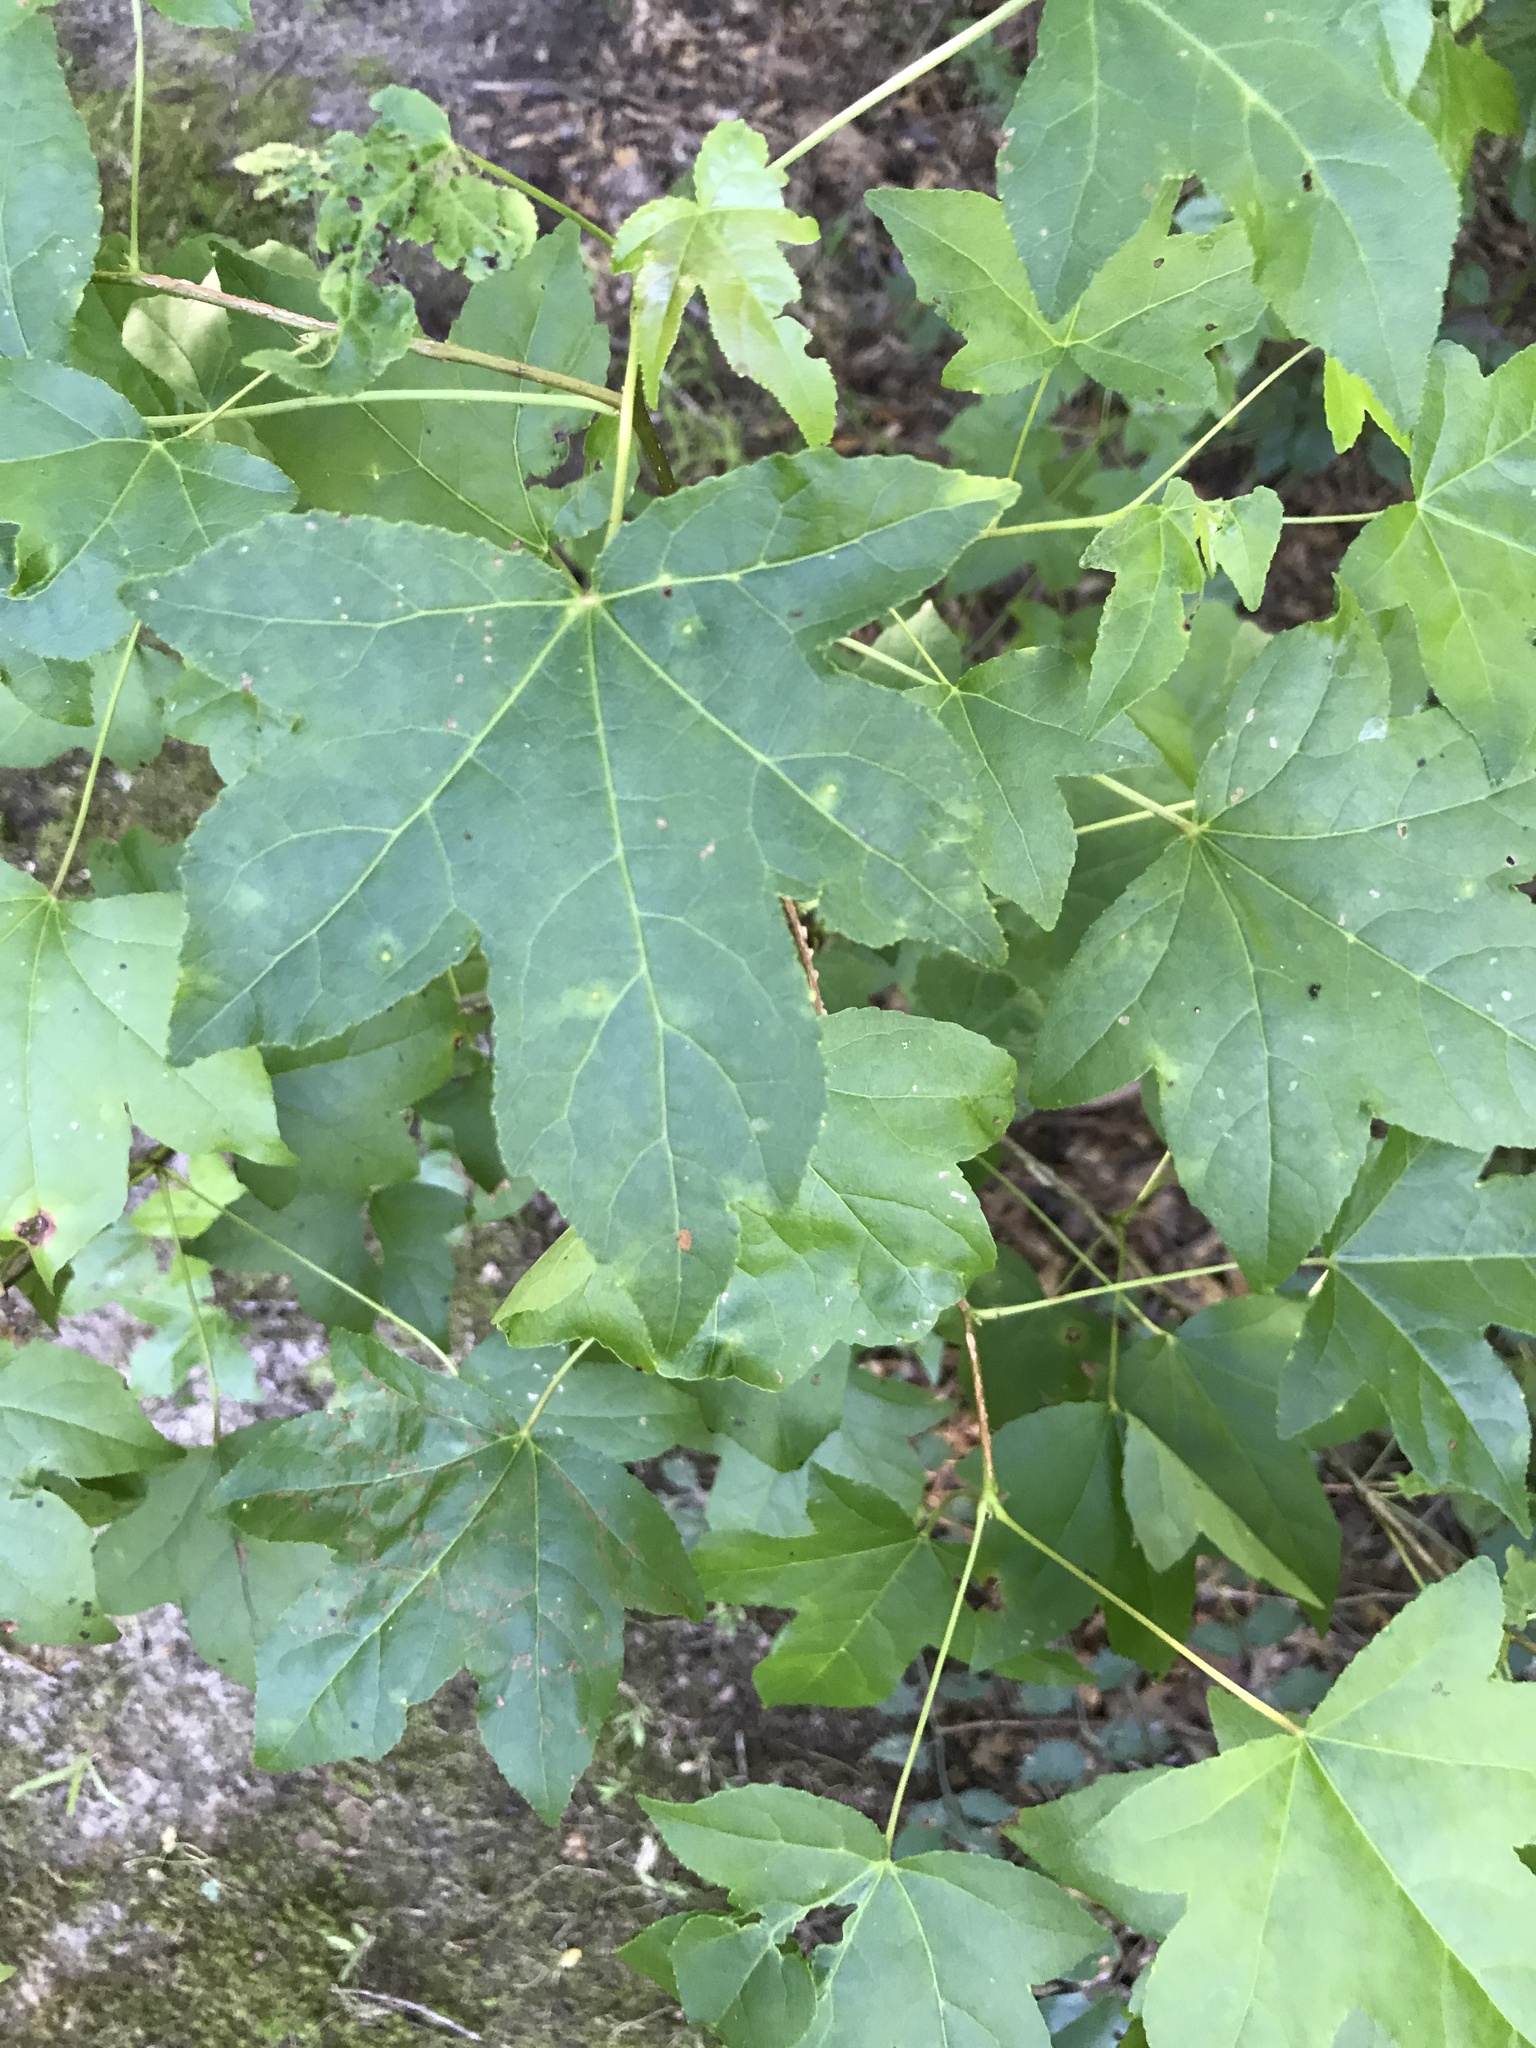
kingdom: Plantae
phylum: Tracheophyta
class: Magnoliopsida
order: Saxifragales
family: Altingiaceae
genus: Liquidambar
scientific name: Liquidambar styraciflua
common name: Sweet gum
